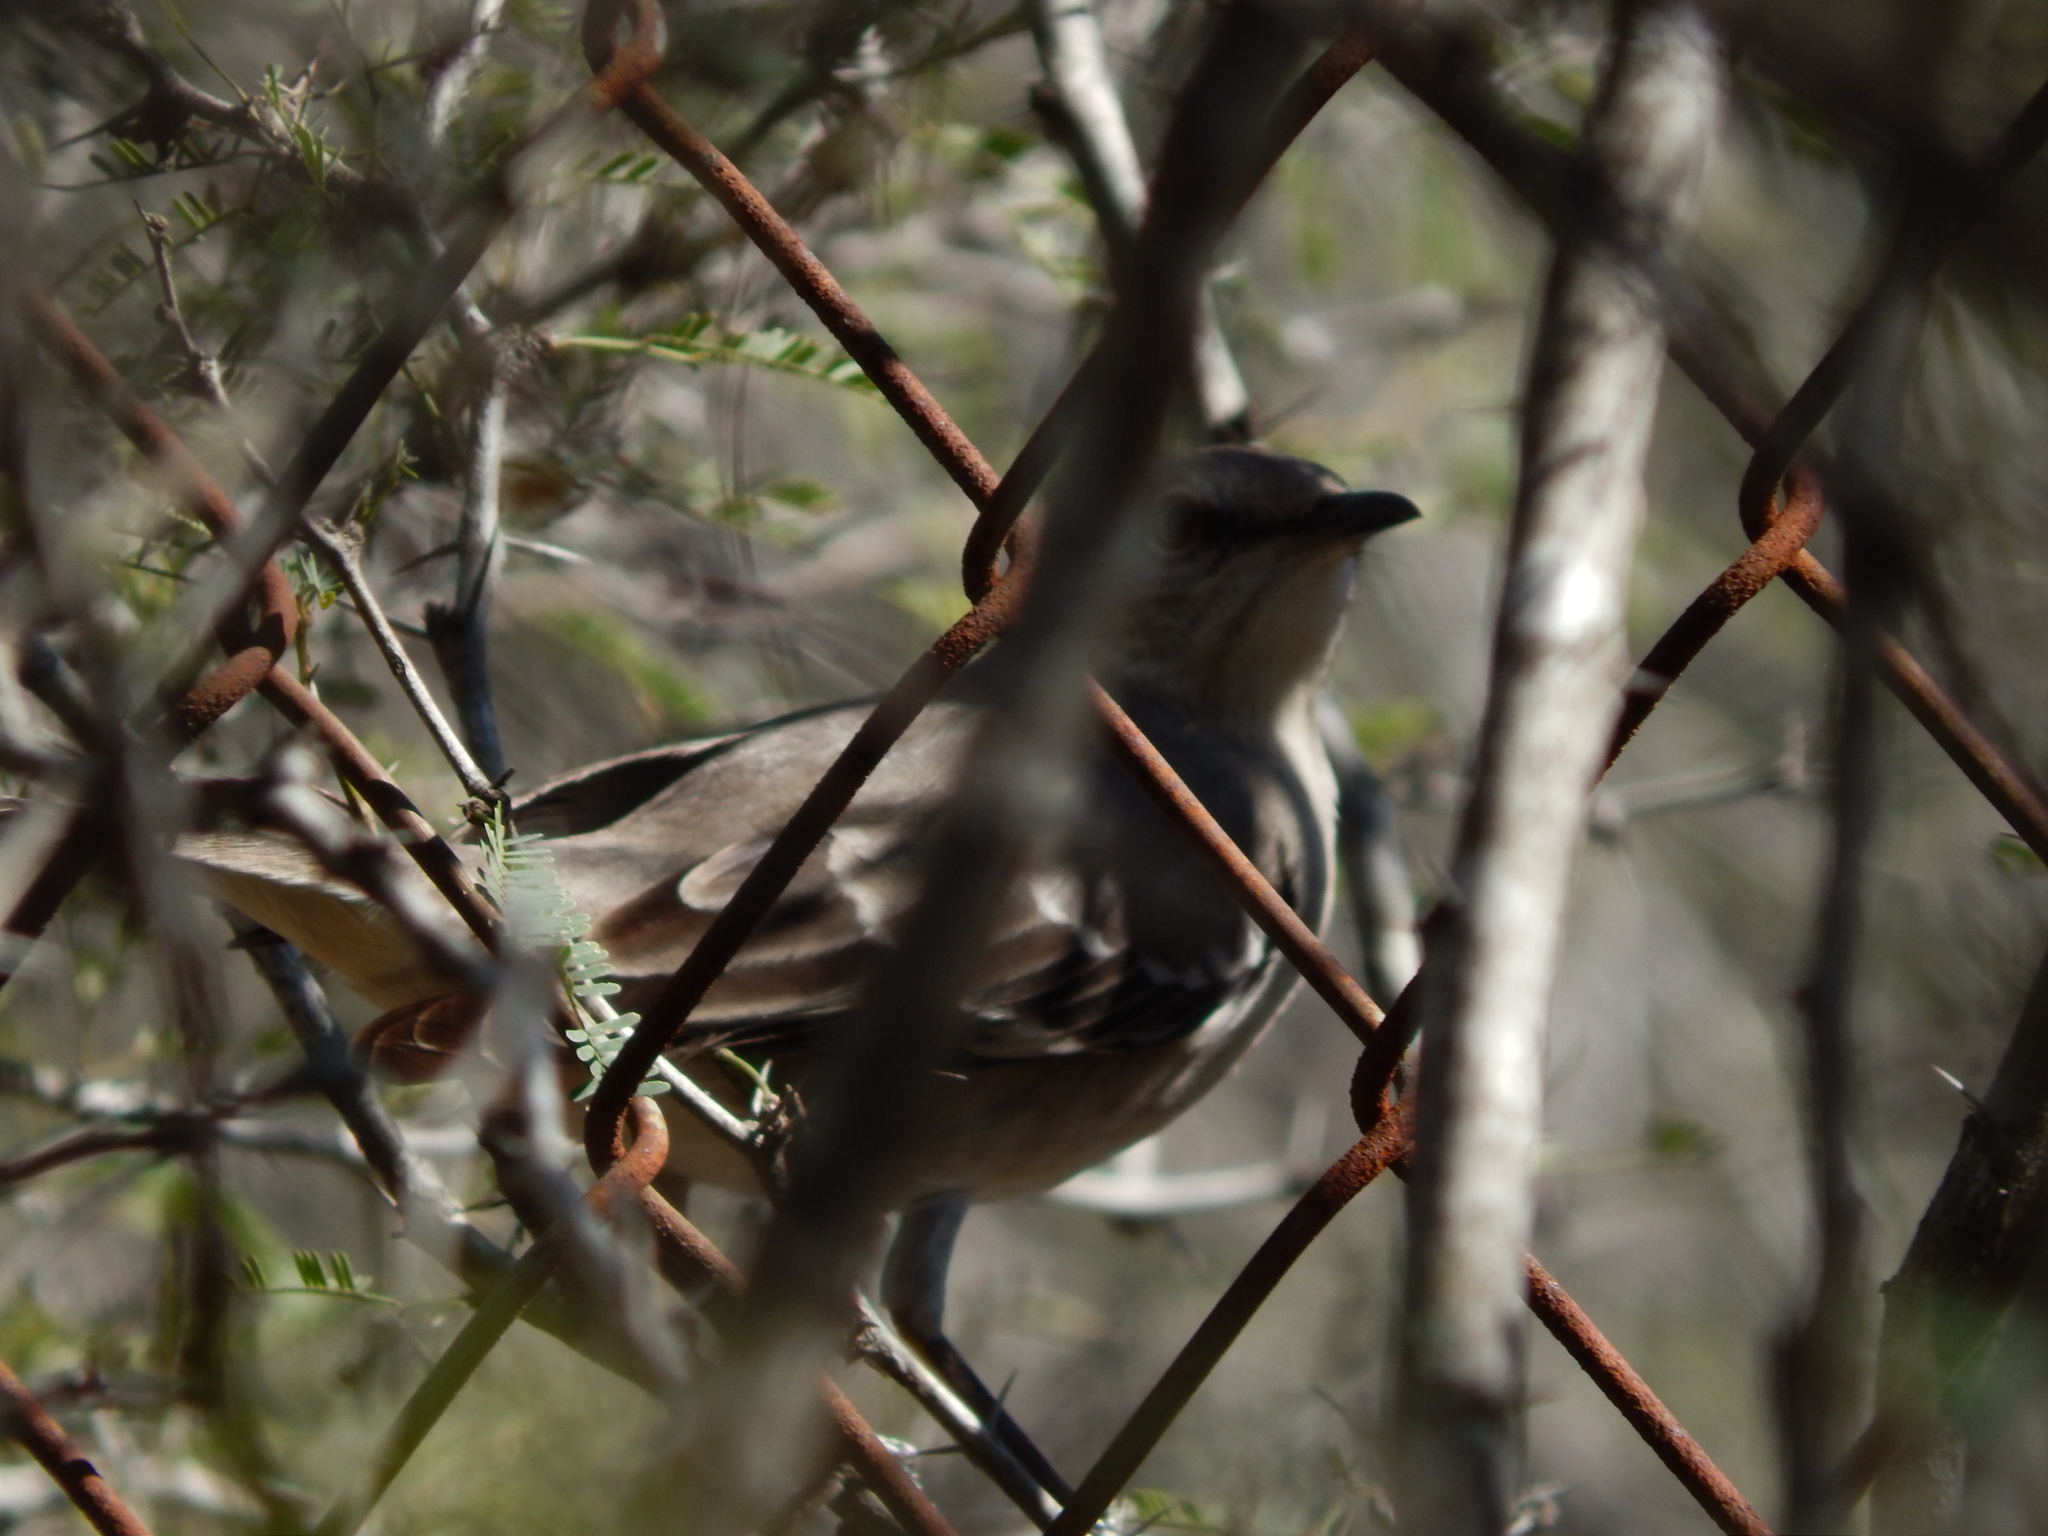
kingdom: Animalia
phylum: Chordata
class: Aves
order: Passeriformes
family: Mimidae
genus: Mimus
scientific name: Mimus polyglottos
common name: Northern mockingbird
